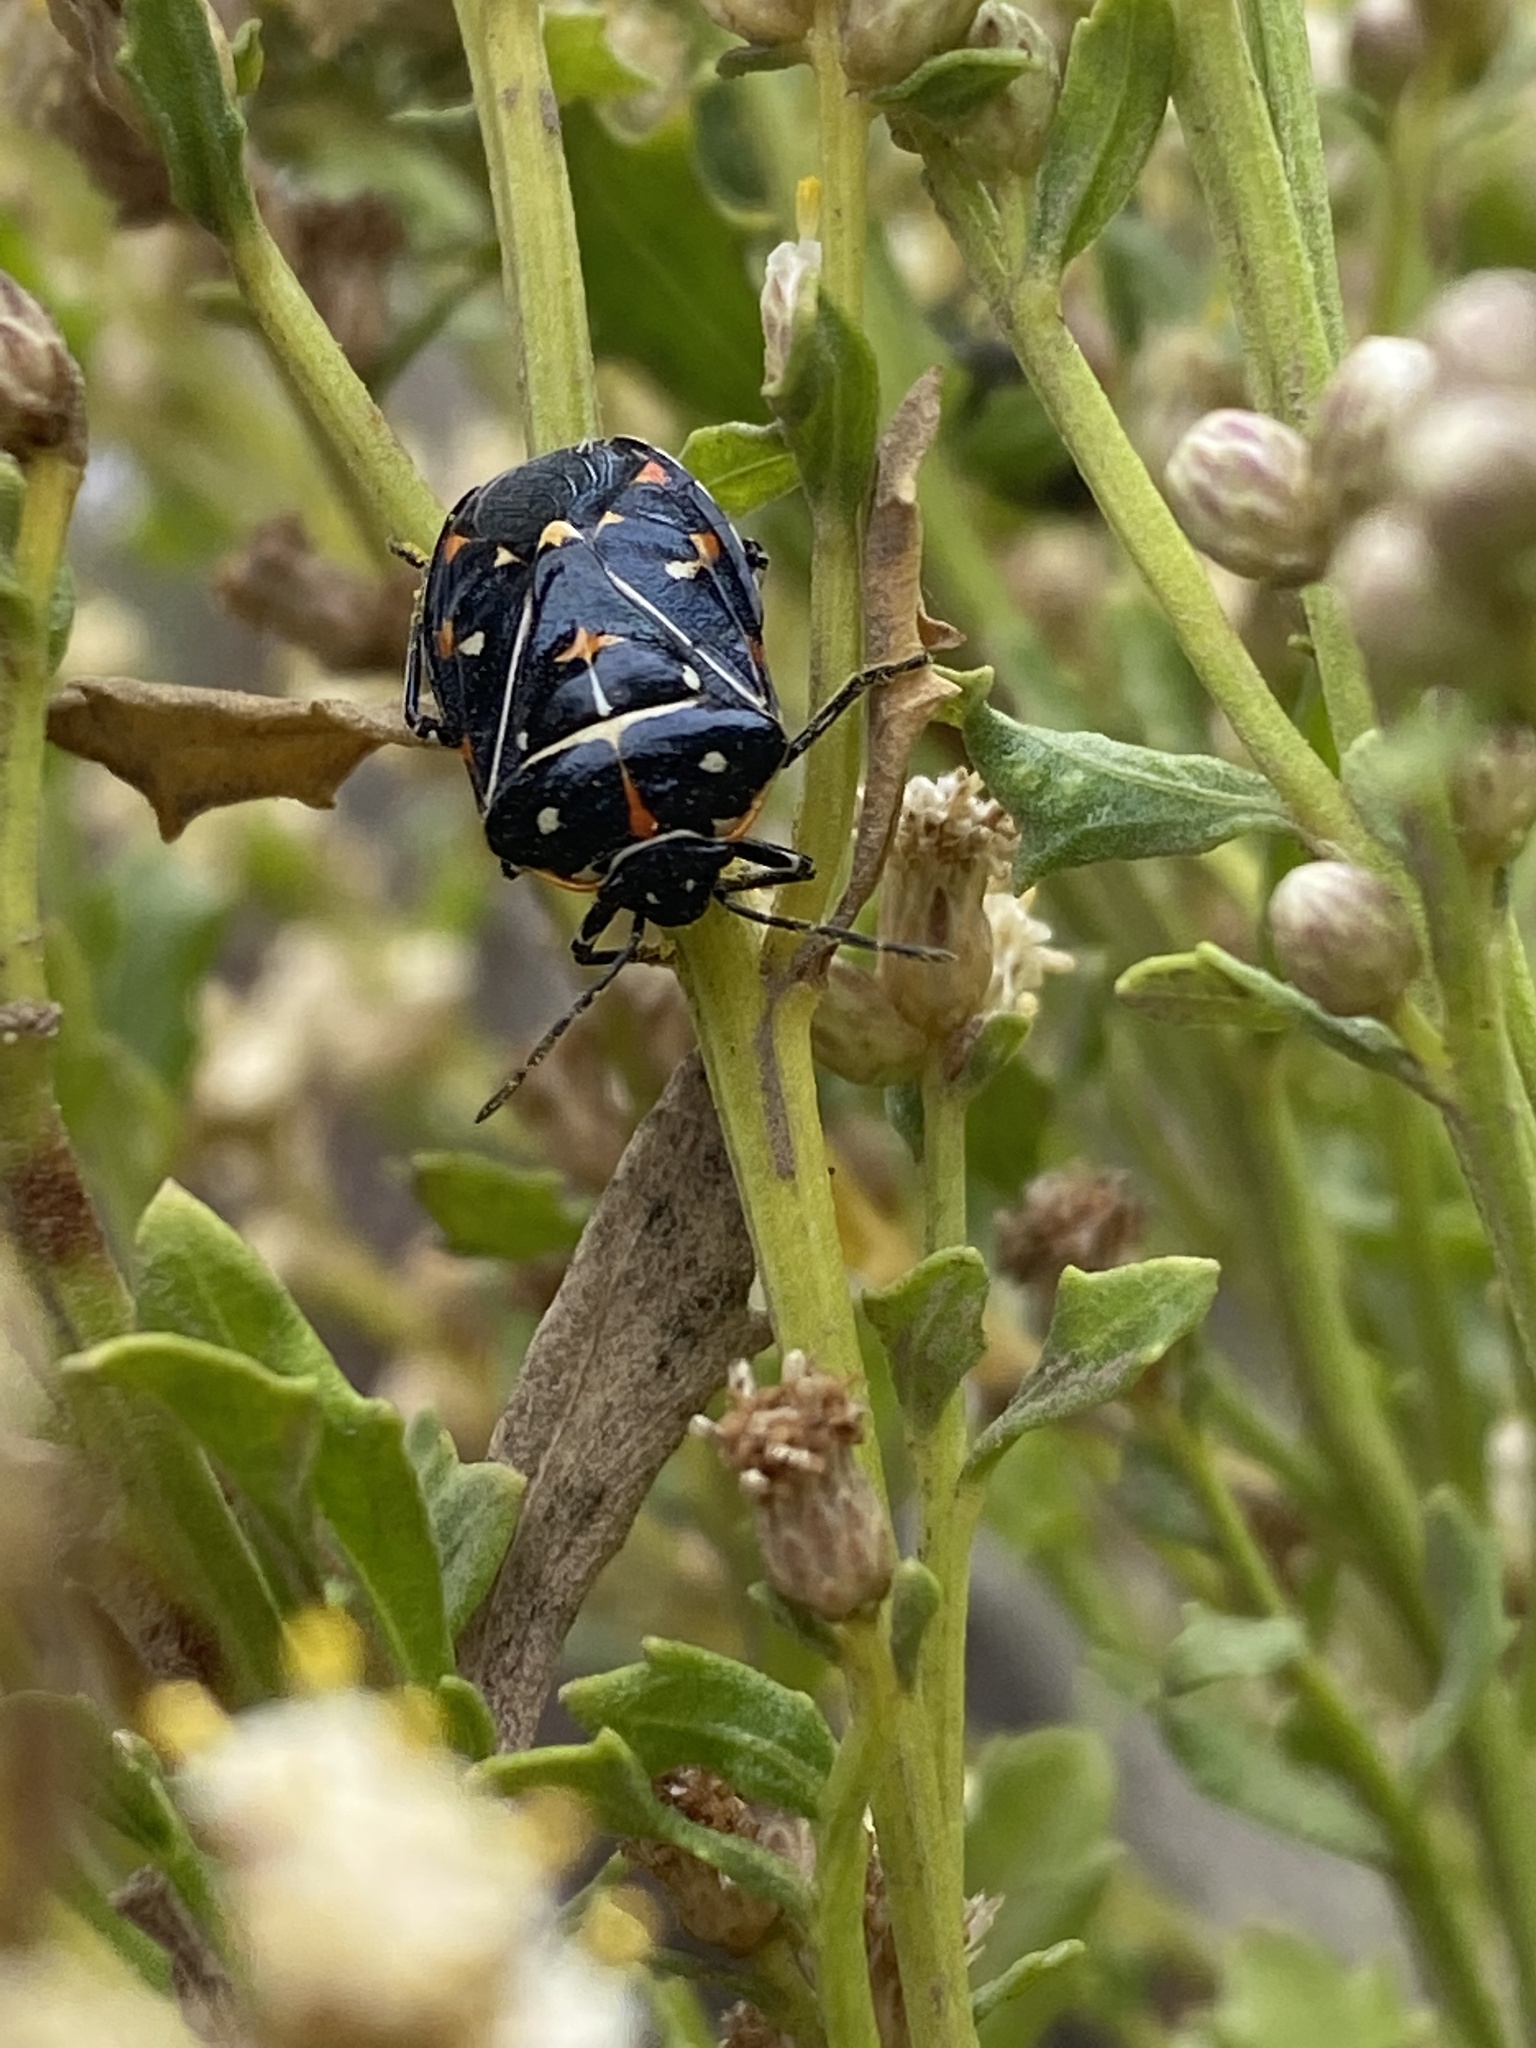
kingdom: Animalia
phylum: Arthropoda
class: Insecta
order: Hemiptera
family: Pentatomidae
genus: Murgantia
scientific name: Murgantia histrionica
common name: Harlequin bug
